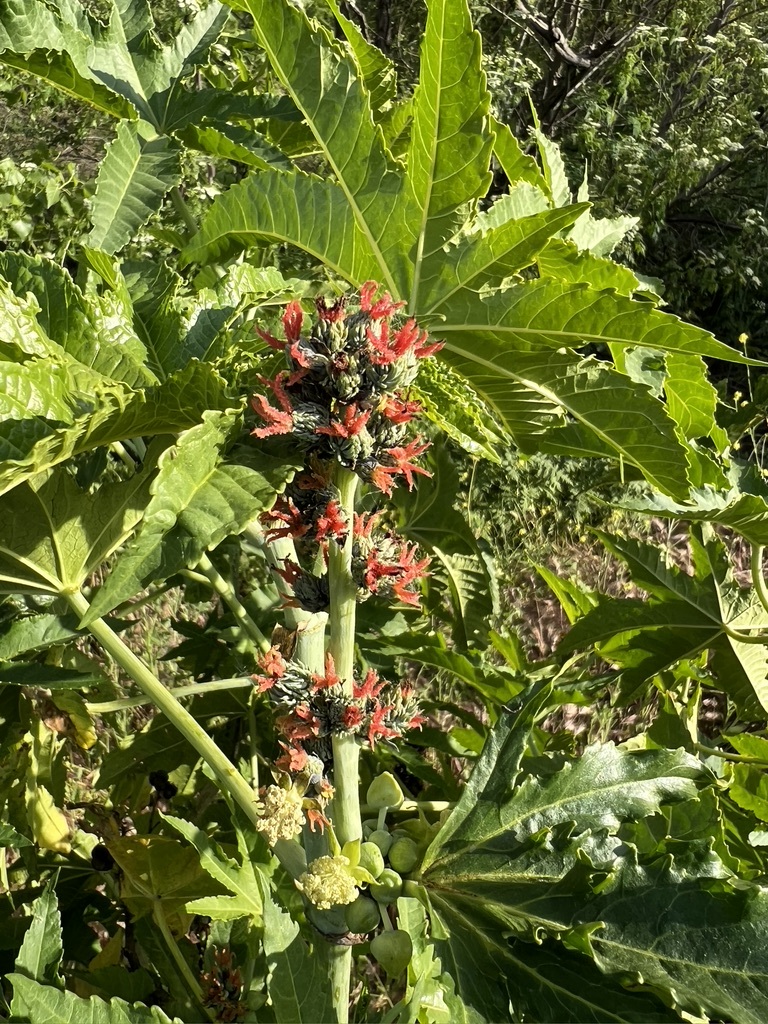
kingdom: Plantae
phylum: Tracheophyta
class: Magnoliopsida
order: Malpighiales
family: Euphorbiaceae
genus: Ricinus
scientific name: Ricinus communis
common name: Castor-oil-plant
